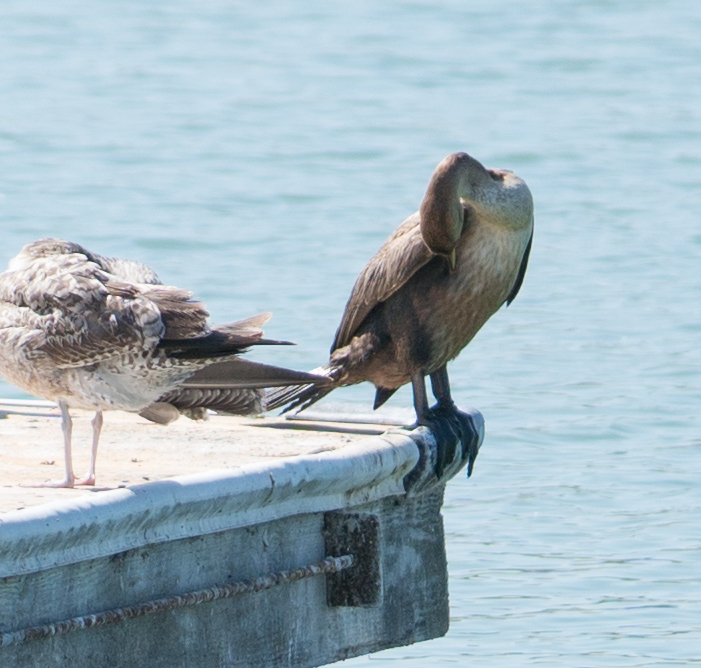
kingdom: Animalia
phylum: Chordata
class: Aves
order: Suliformes
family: Phalacrocoracidae
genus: Phalacrocorax
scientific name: Phalacrocorax auritus
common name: Double-crested cormorant
